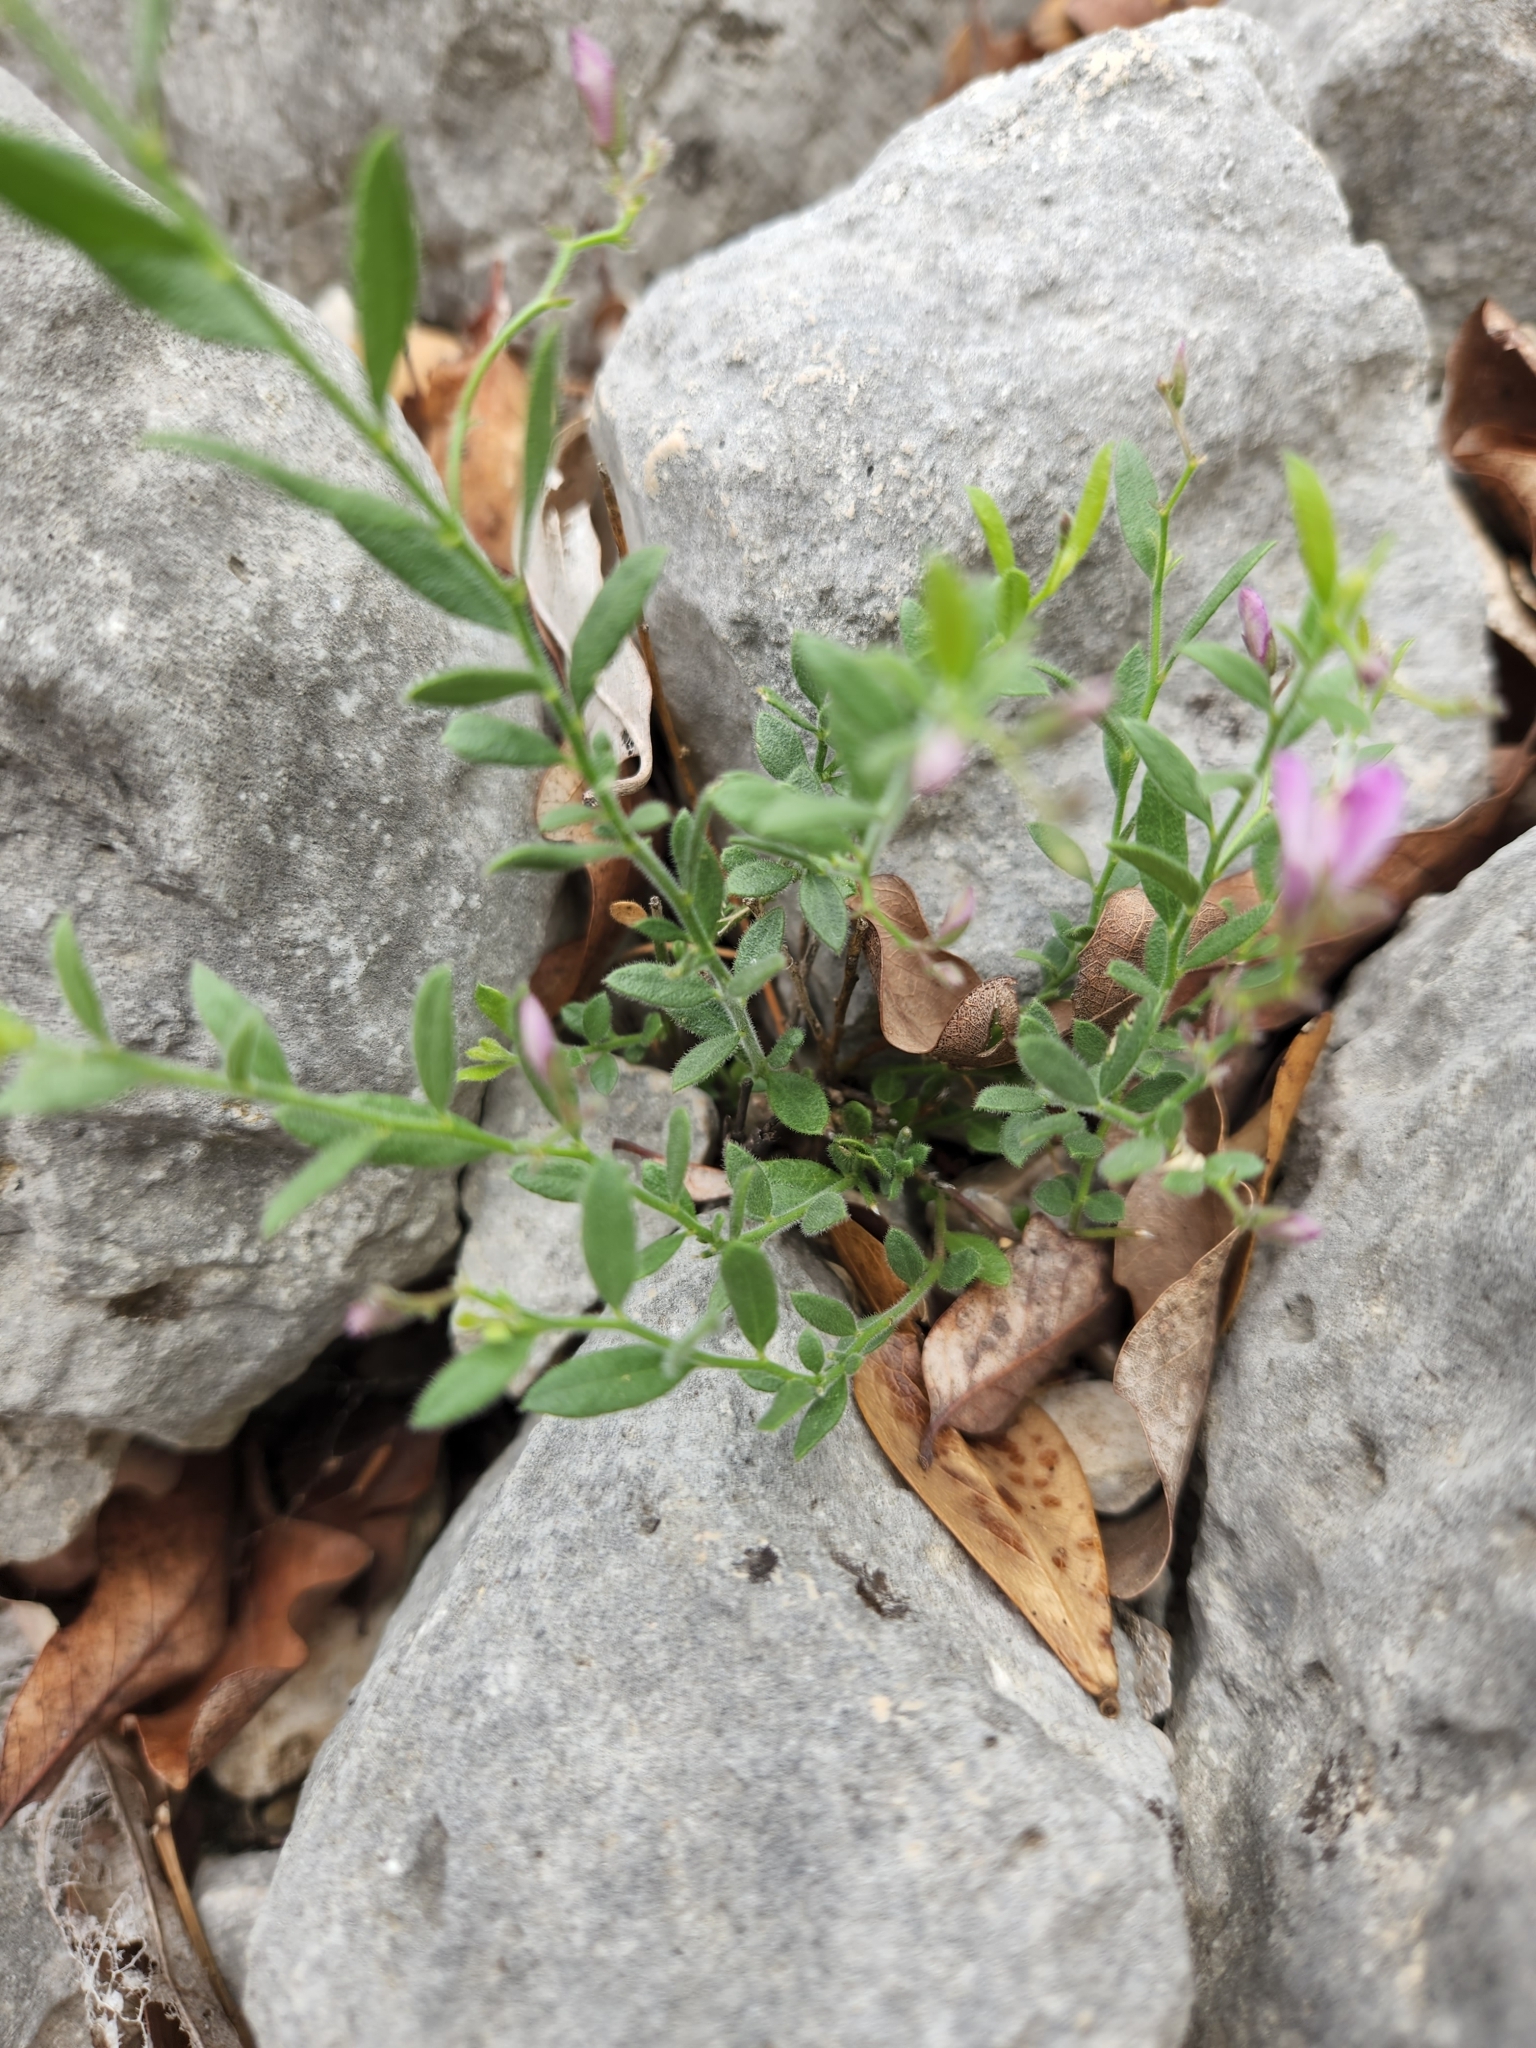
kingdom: Plantae
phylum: Tracheophyta
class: Magnoliopsida
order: Fabales
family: Polygalaceae
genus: Rhinotropis
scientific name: Rhinotropis lindheimeri
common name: Shrubby milkwort
